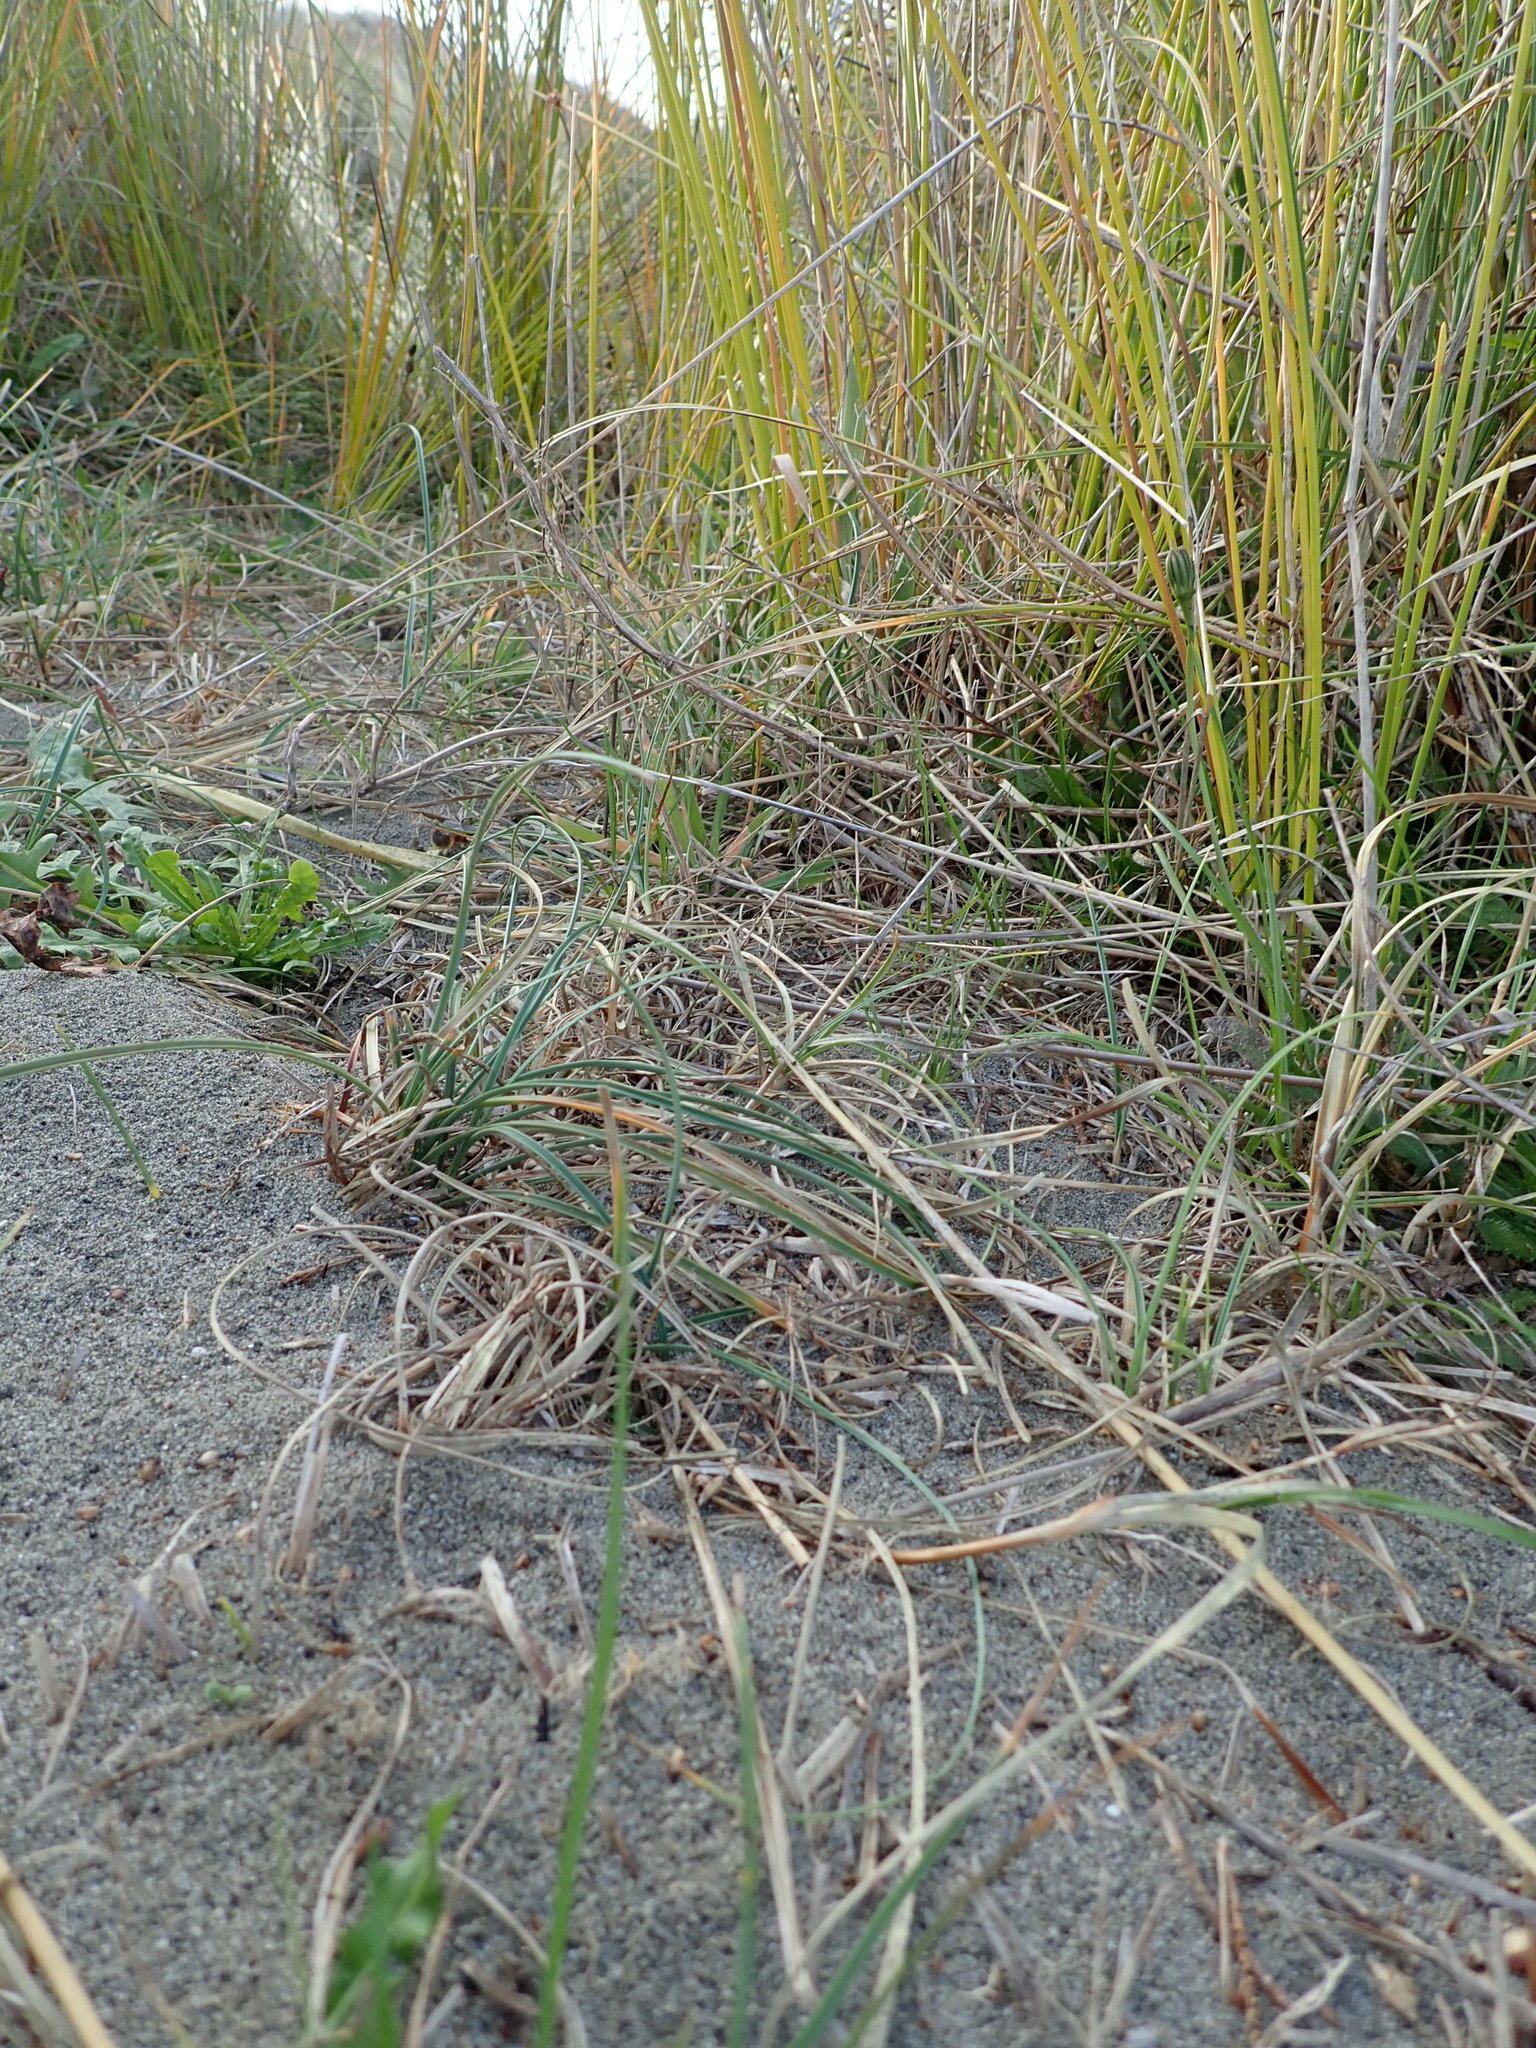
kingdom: Plantae
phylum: Tracheophyta
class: Liliopsida
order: Poales
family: Cyperaceae
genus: Carex
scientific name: Carex pumila
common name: Dwarf sedge
